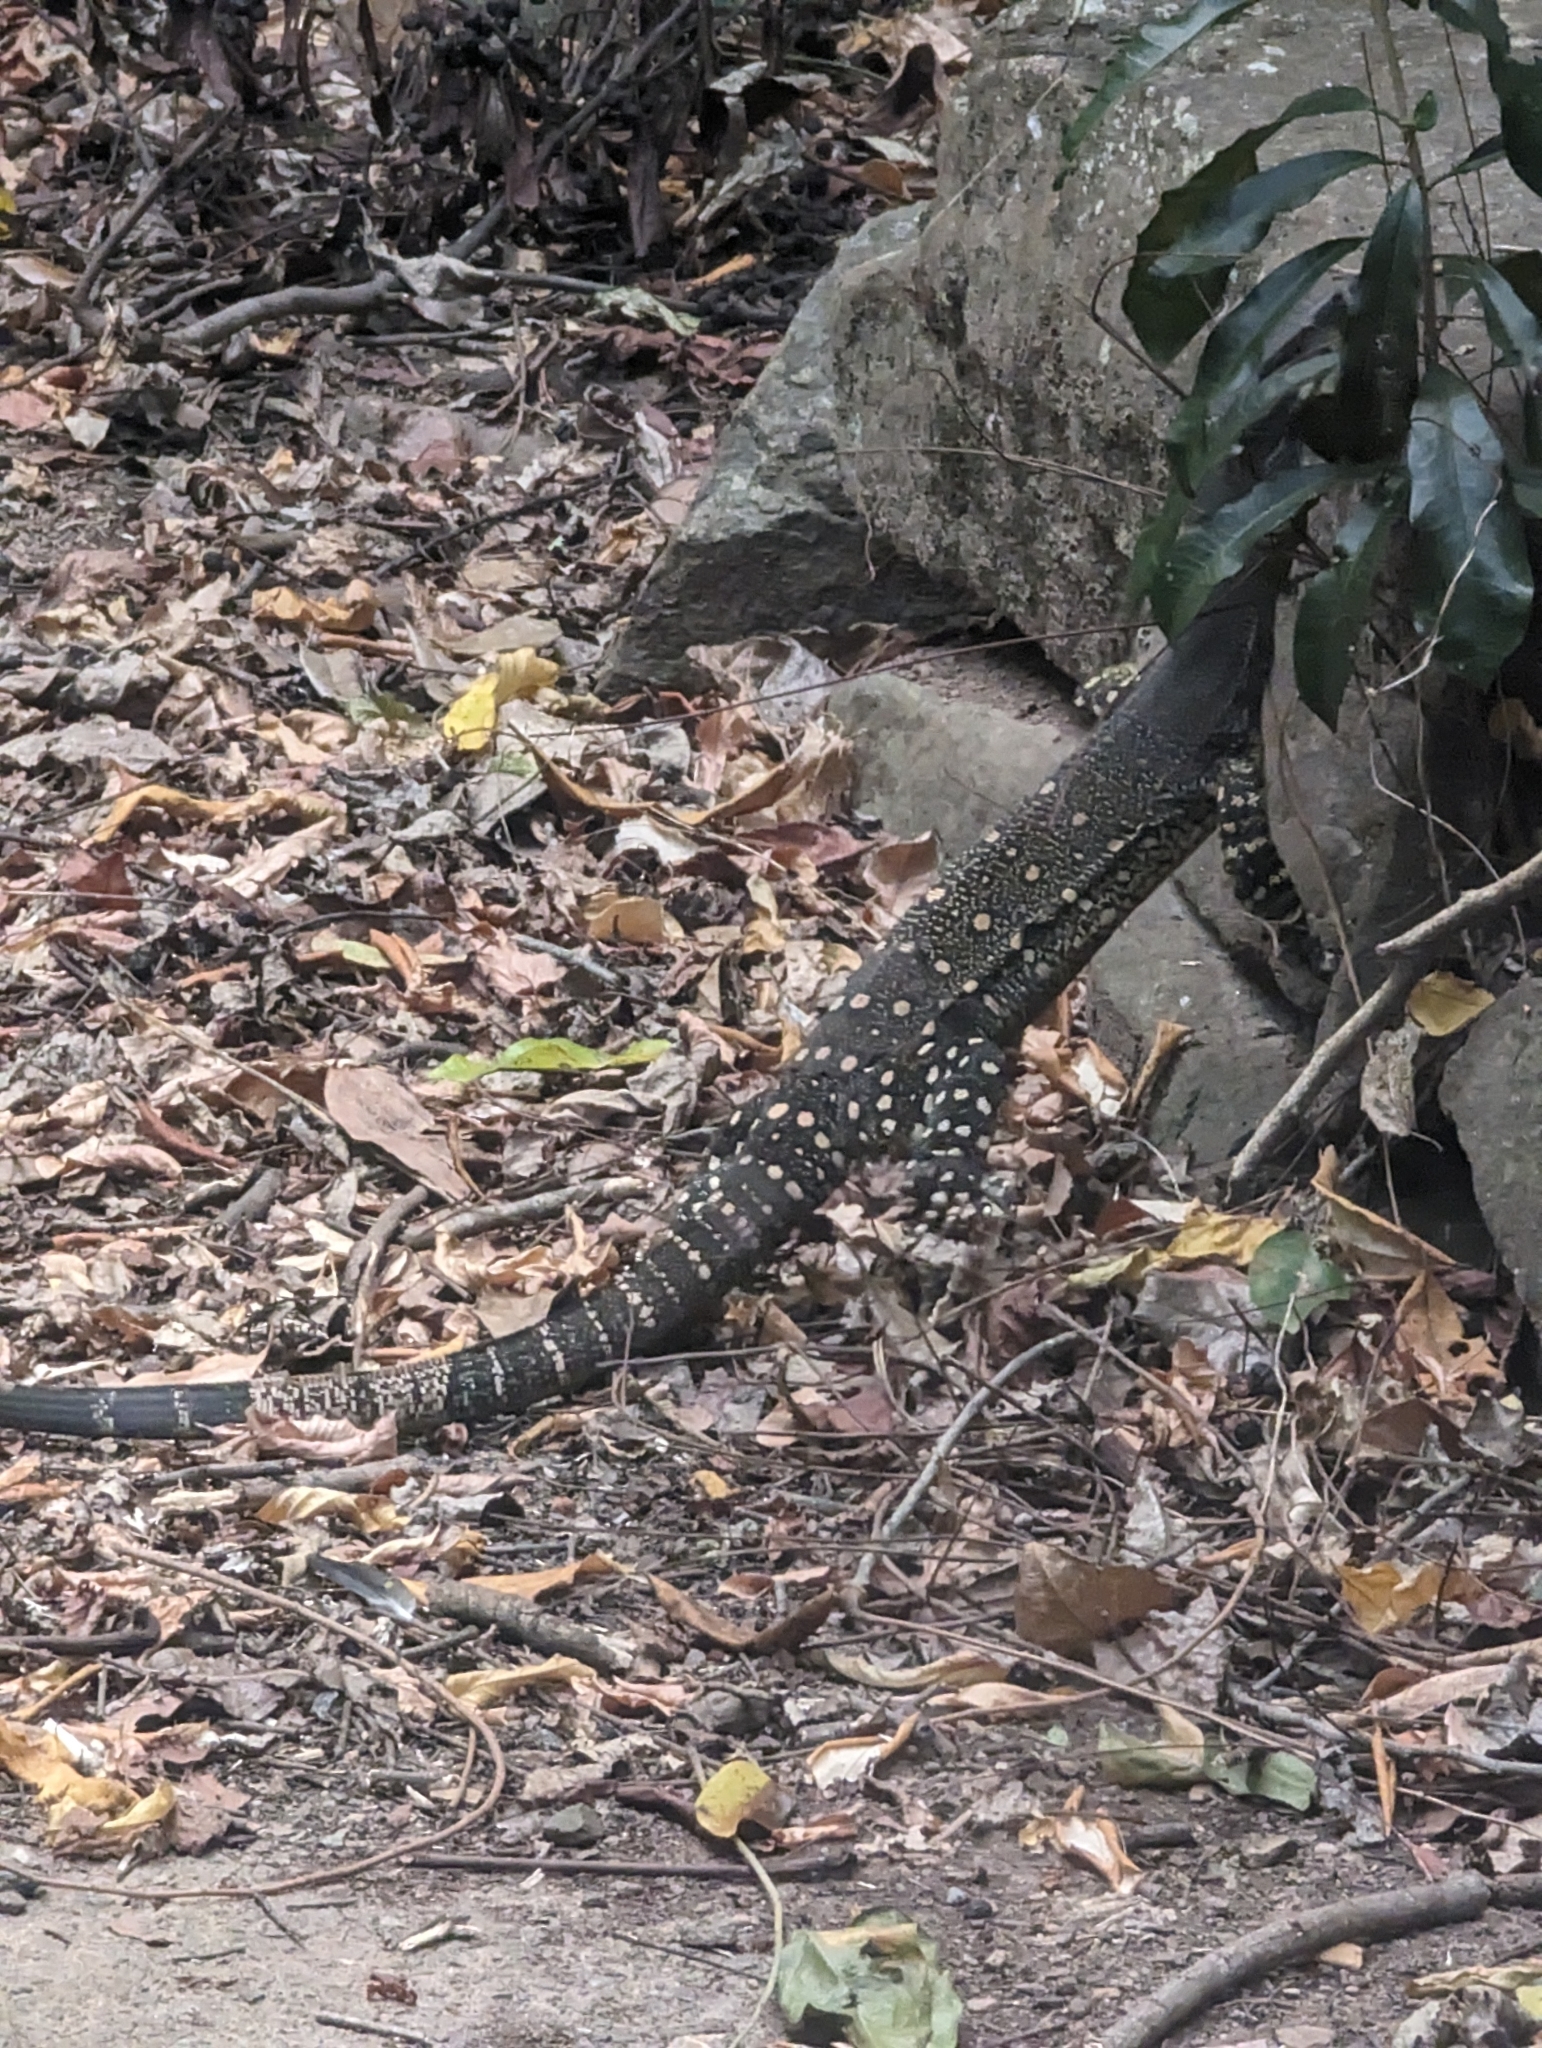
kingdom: Animalia
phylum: Chordata
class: Squamata
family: Varanidae
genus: Varanus
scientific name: Varanus varius
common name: Lace monitor
